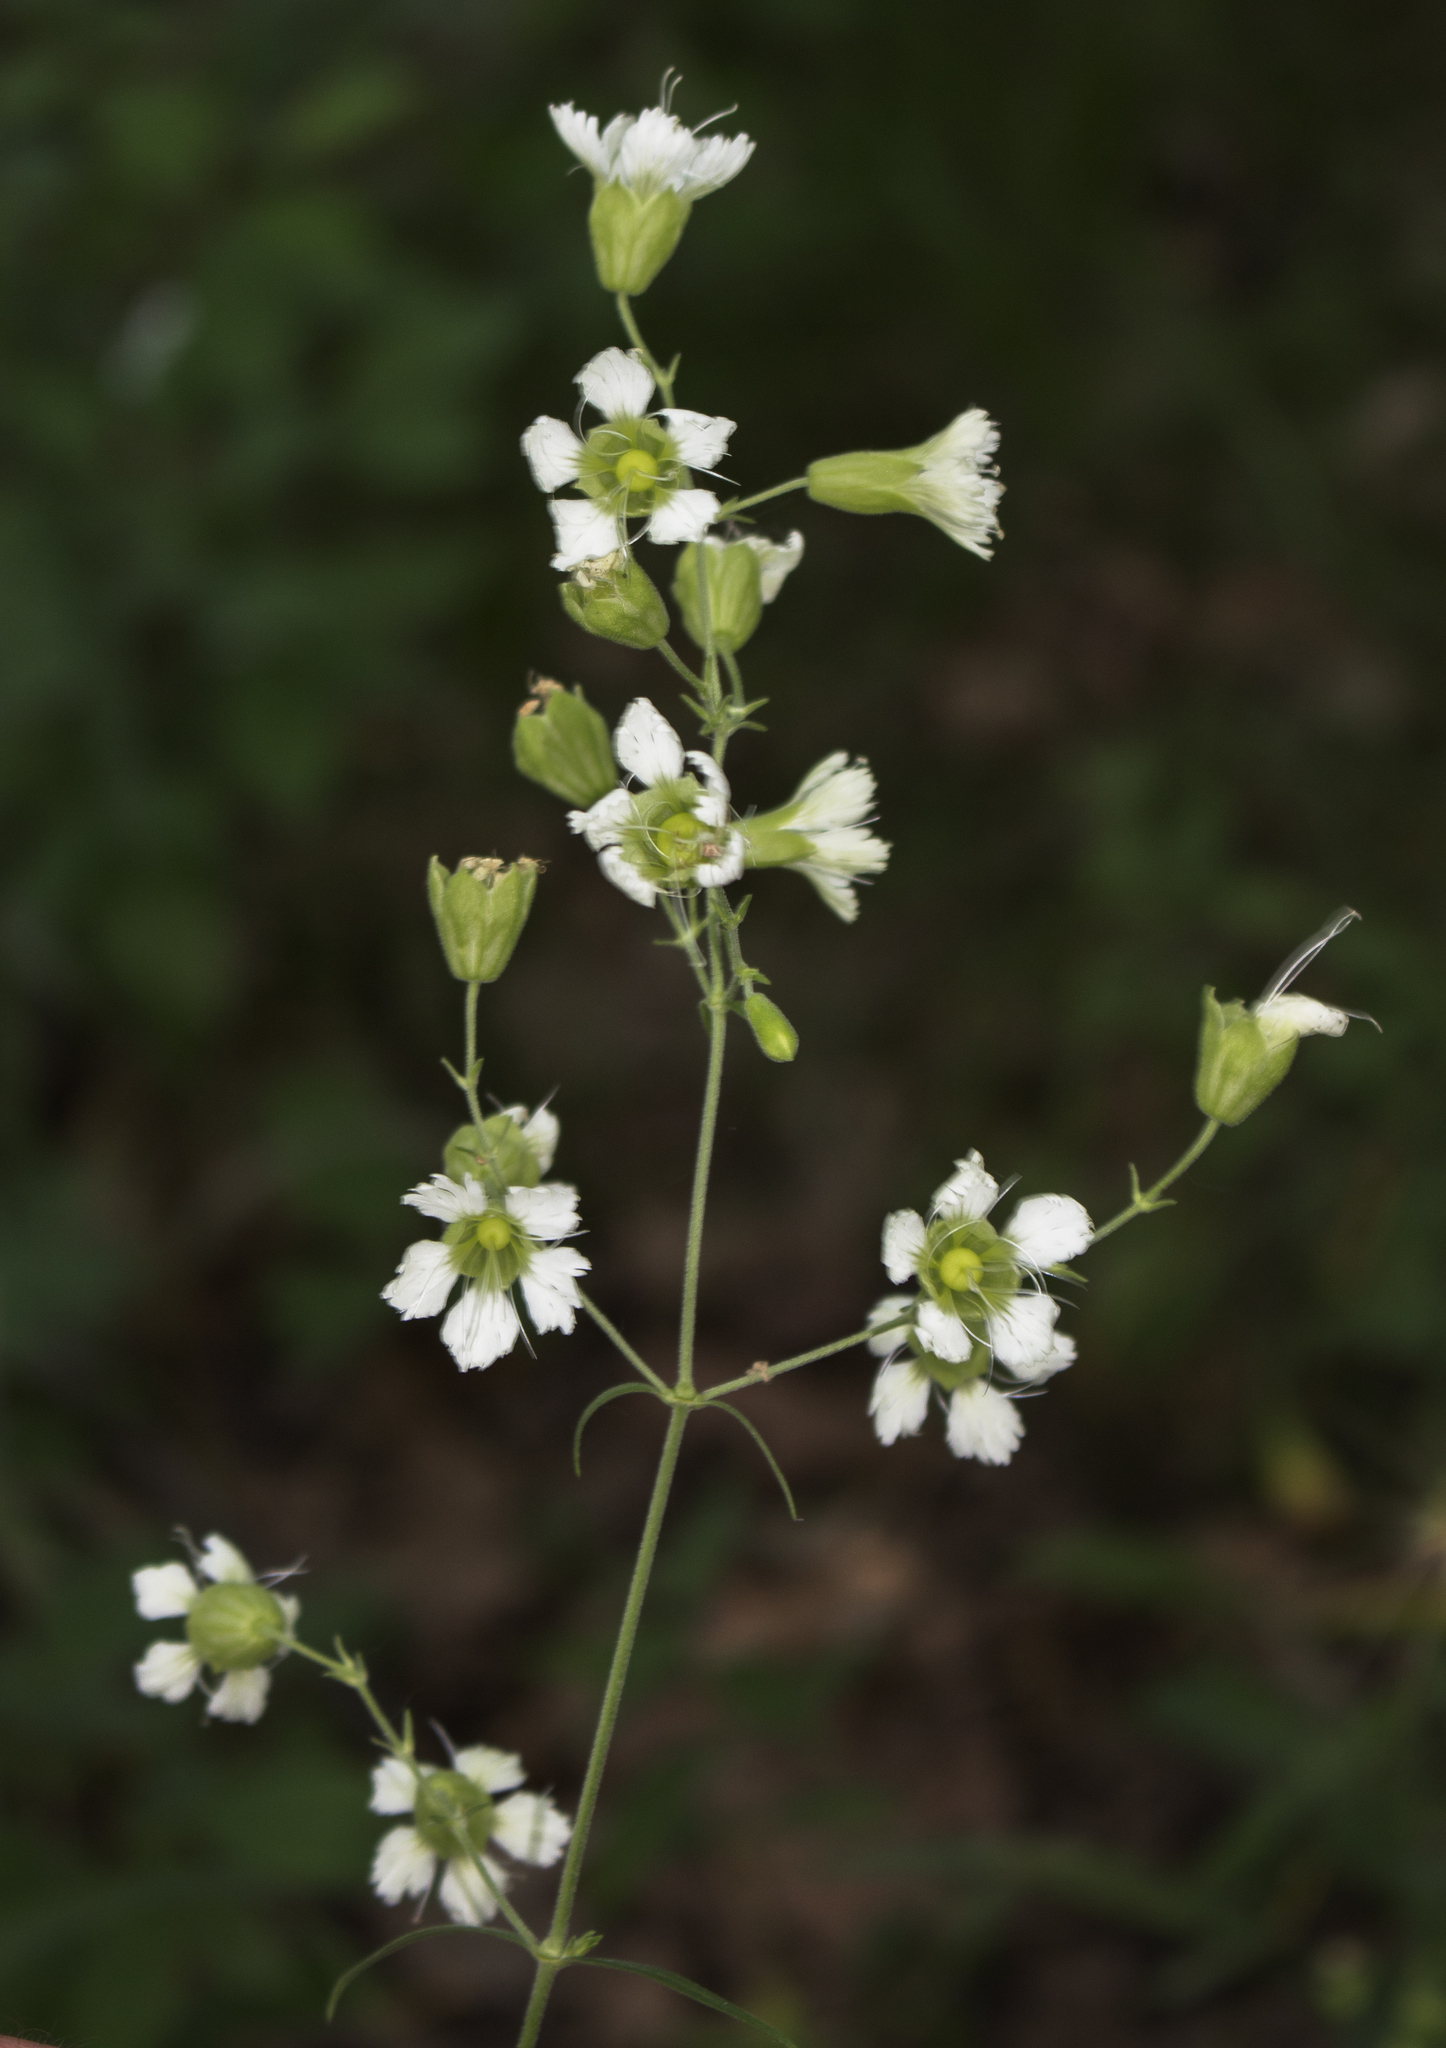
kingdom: Plantae
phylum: Tracheophyta
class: Magnoliopsida
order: Caryophyllales
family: Caryophyllaceae
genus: Silene
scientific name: Silene stellata
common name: Starry campion
